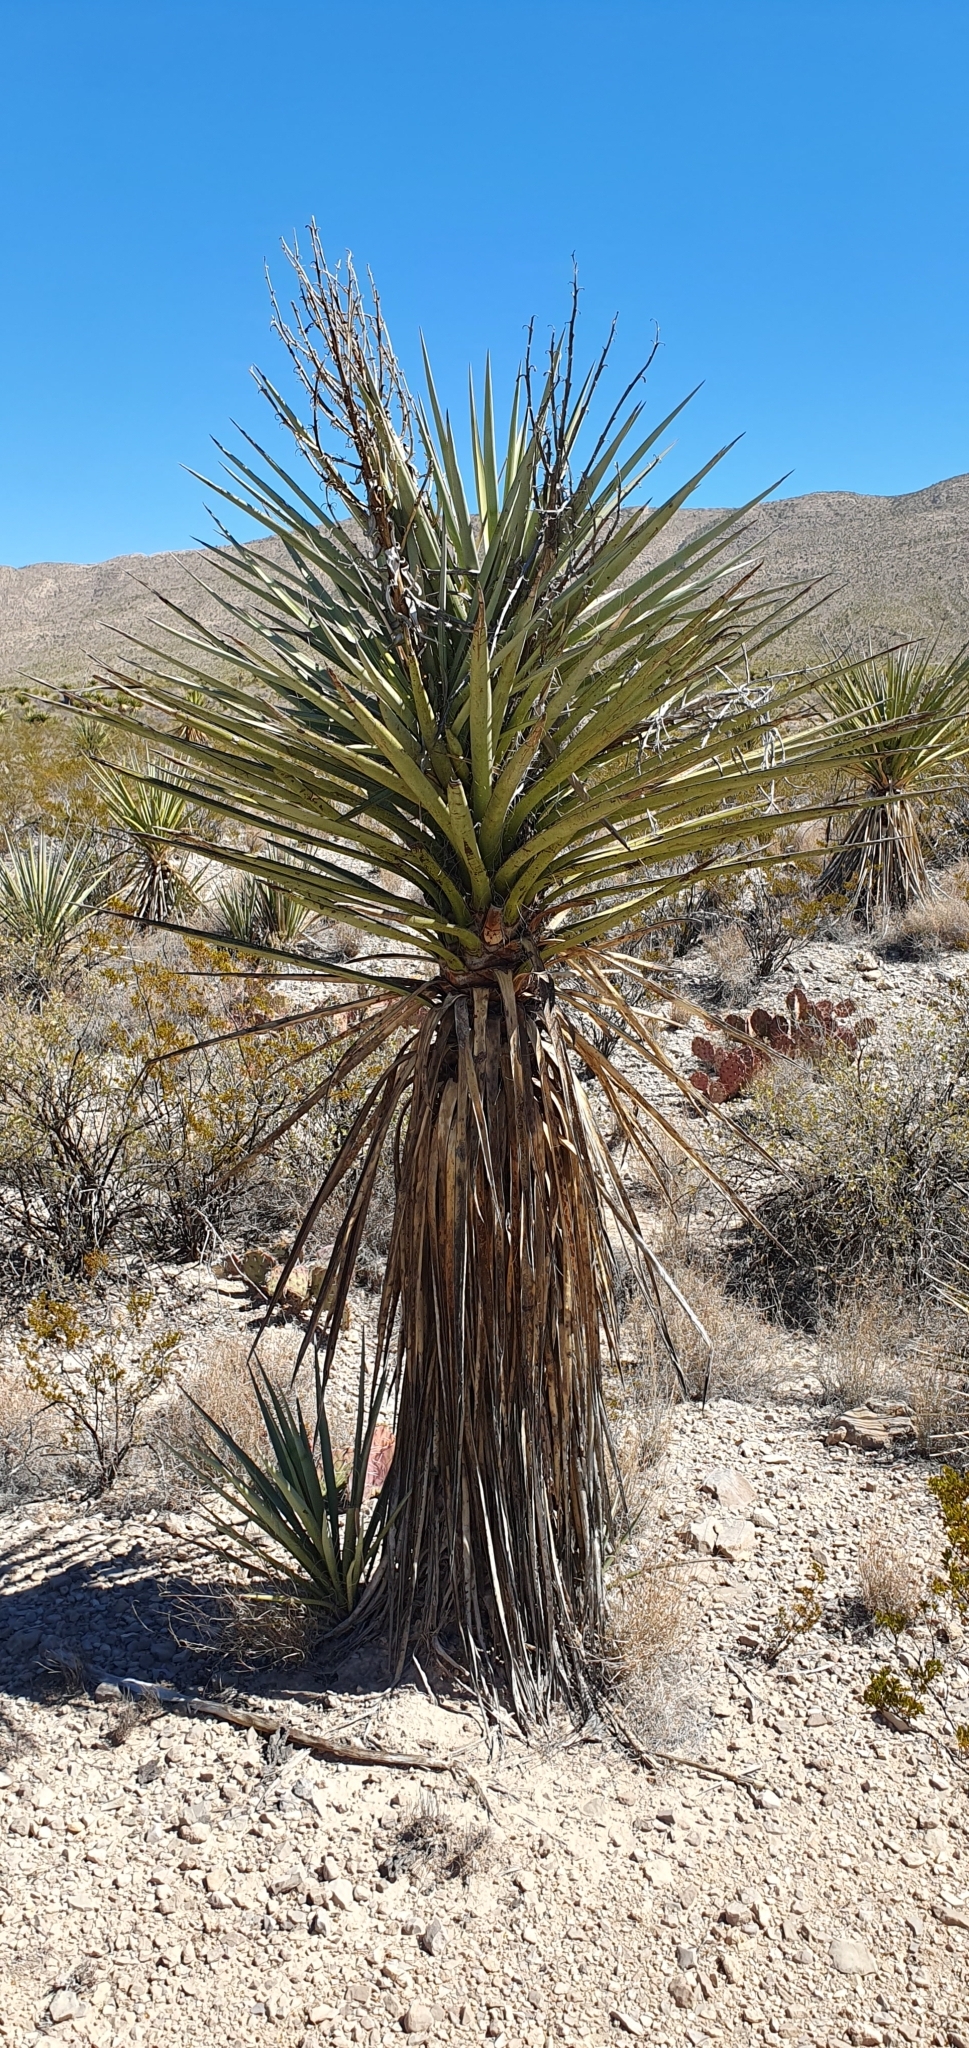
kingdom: Plantae
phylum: Tracheophyta
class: Liliopsida
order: Asparagales
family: Asparagaceae
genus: Yucca
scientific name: Yucca treculiana
